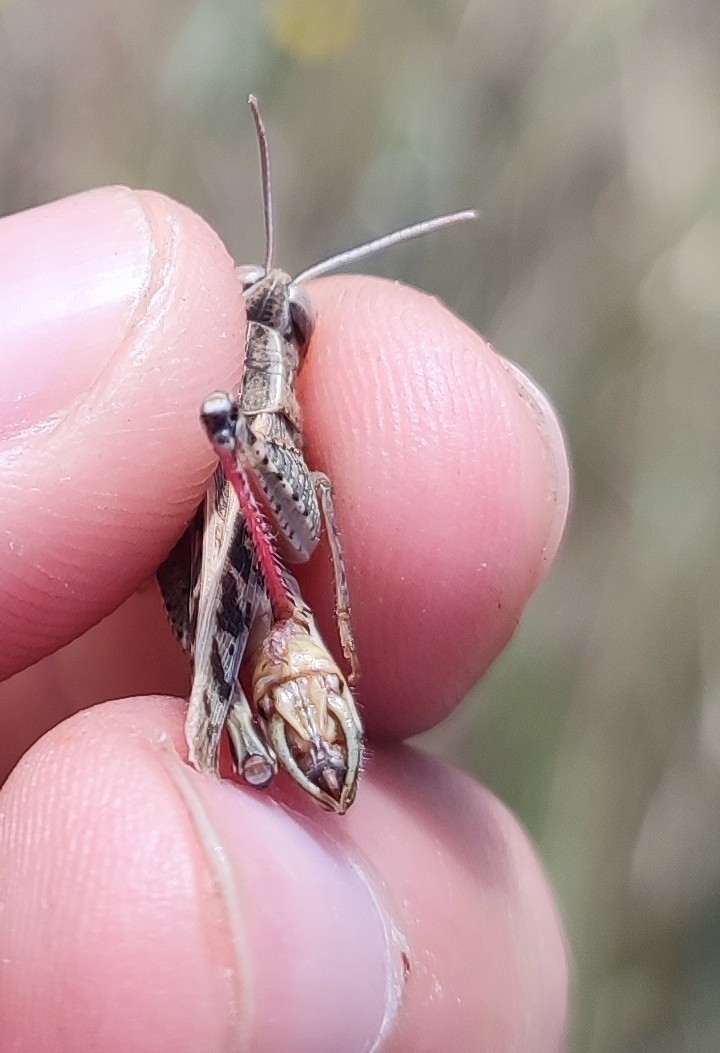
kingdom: Animalia
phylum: Arthropoda
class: Insecta
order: Orthoptera
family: Acrididae
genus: Calliptamus
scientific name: Calliptamus italicus
